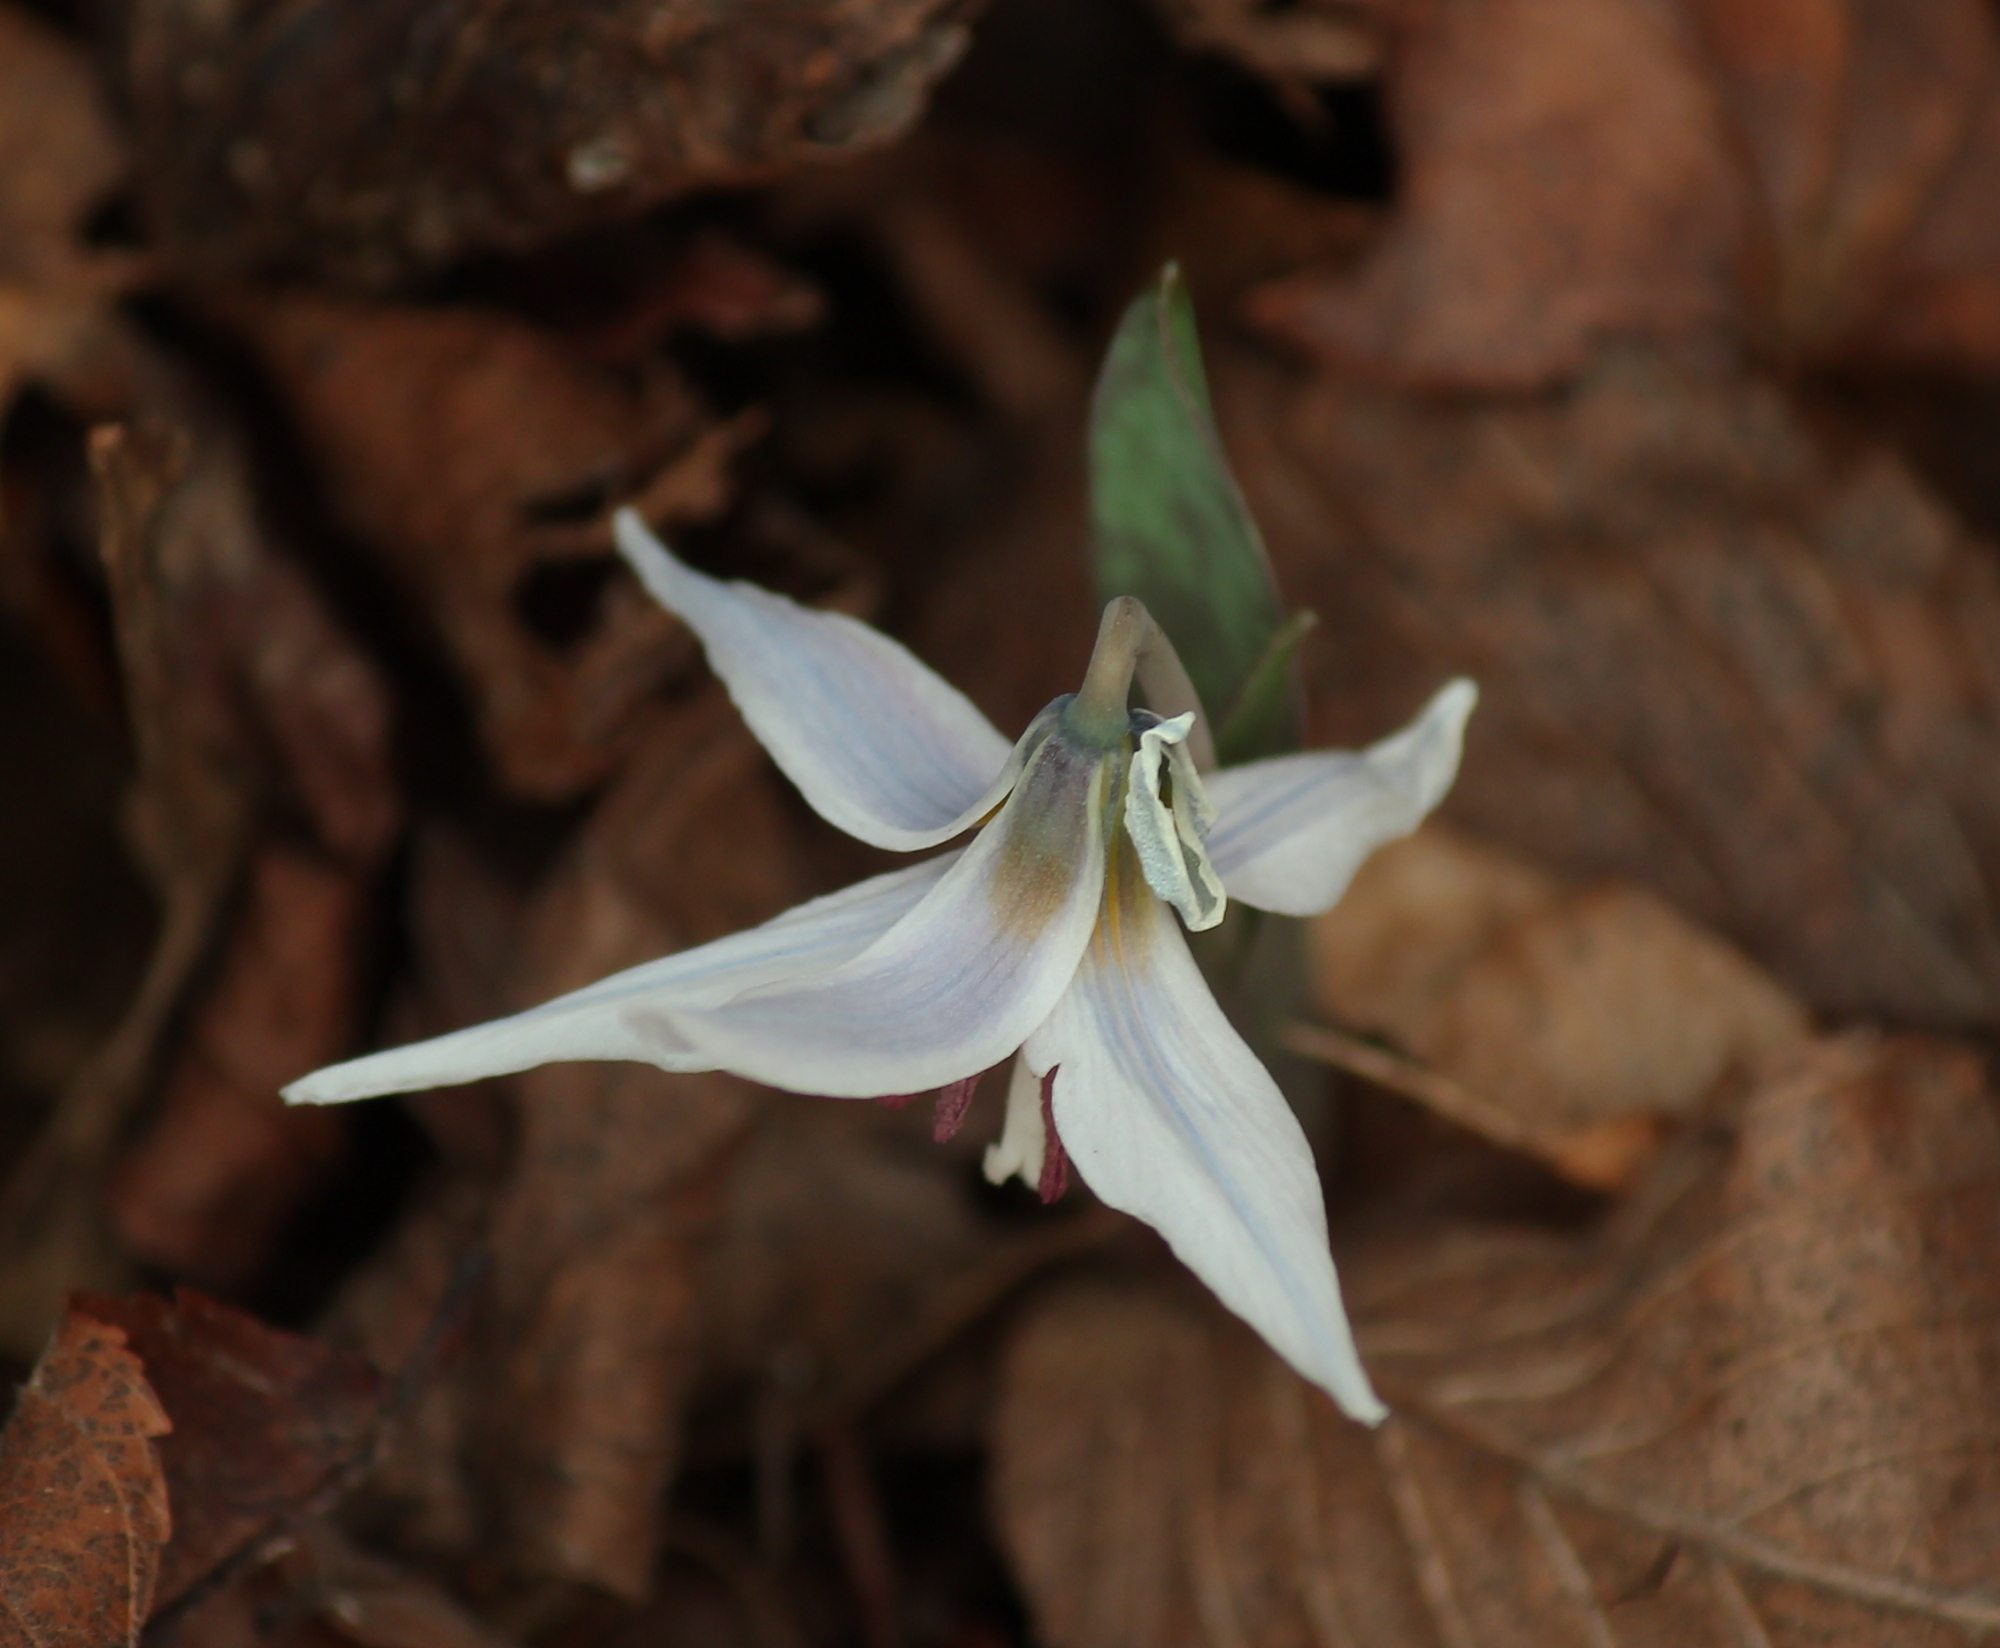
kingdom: Plantae
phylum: Tracheophyta
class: Liliopsida
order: Liliales
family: Liliaceae
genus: Erythronium
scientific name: Erythronium albidum
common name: White trout-lily
